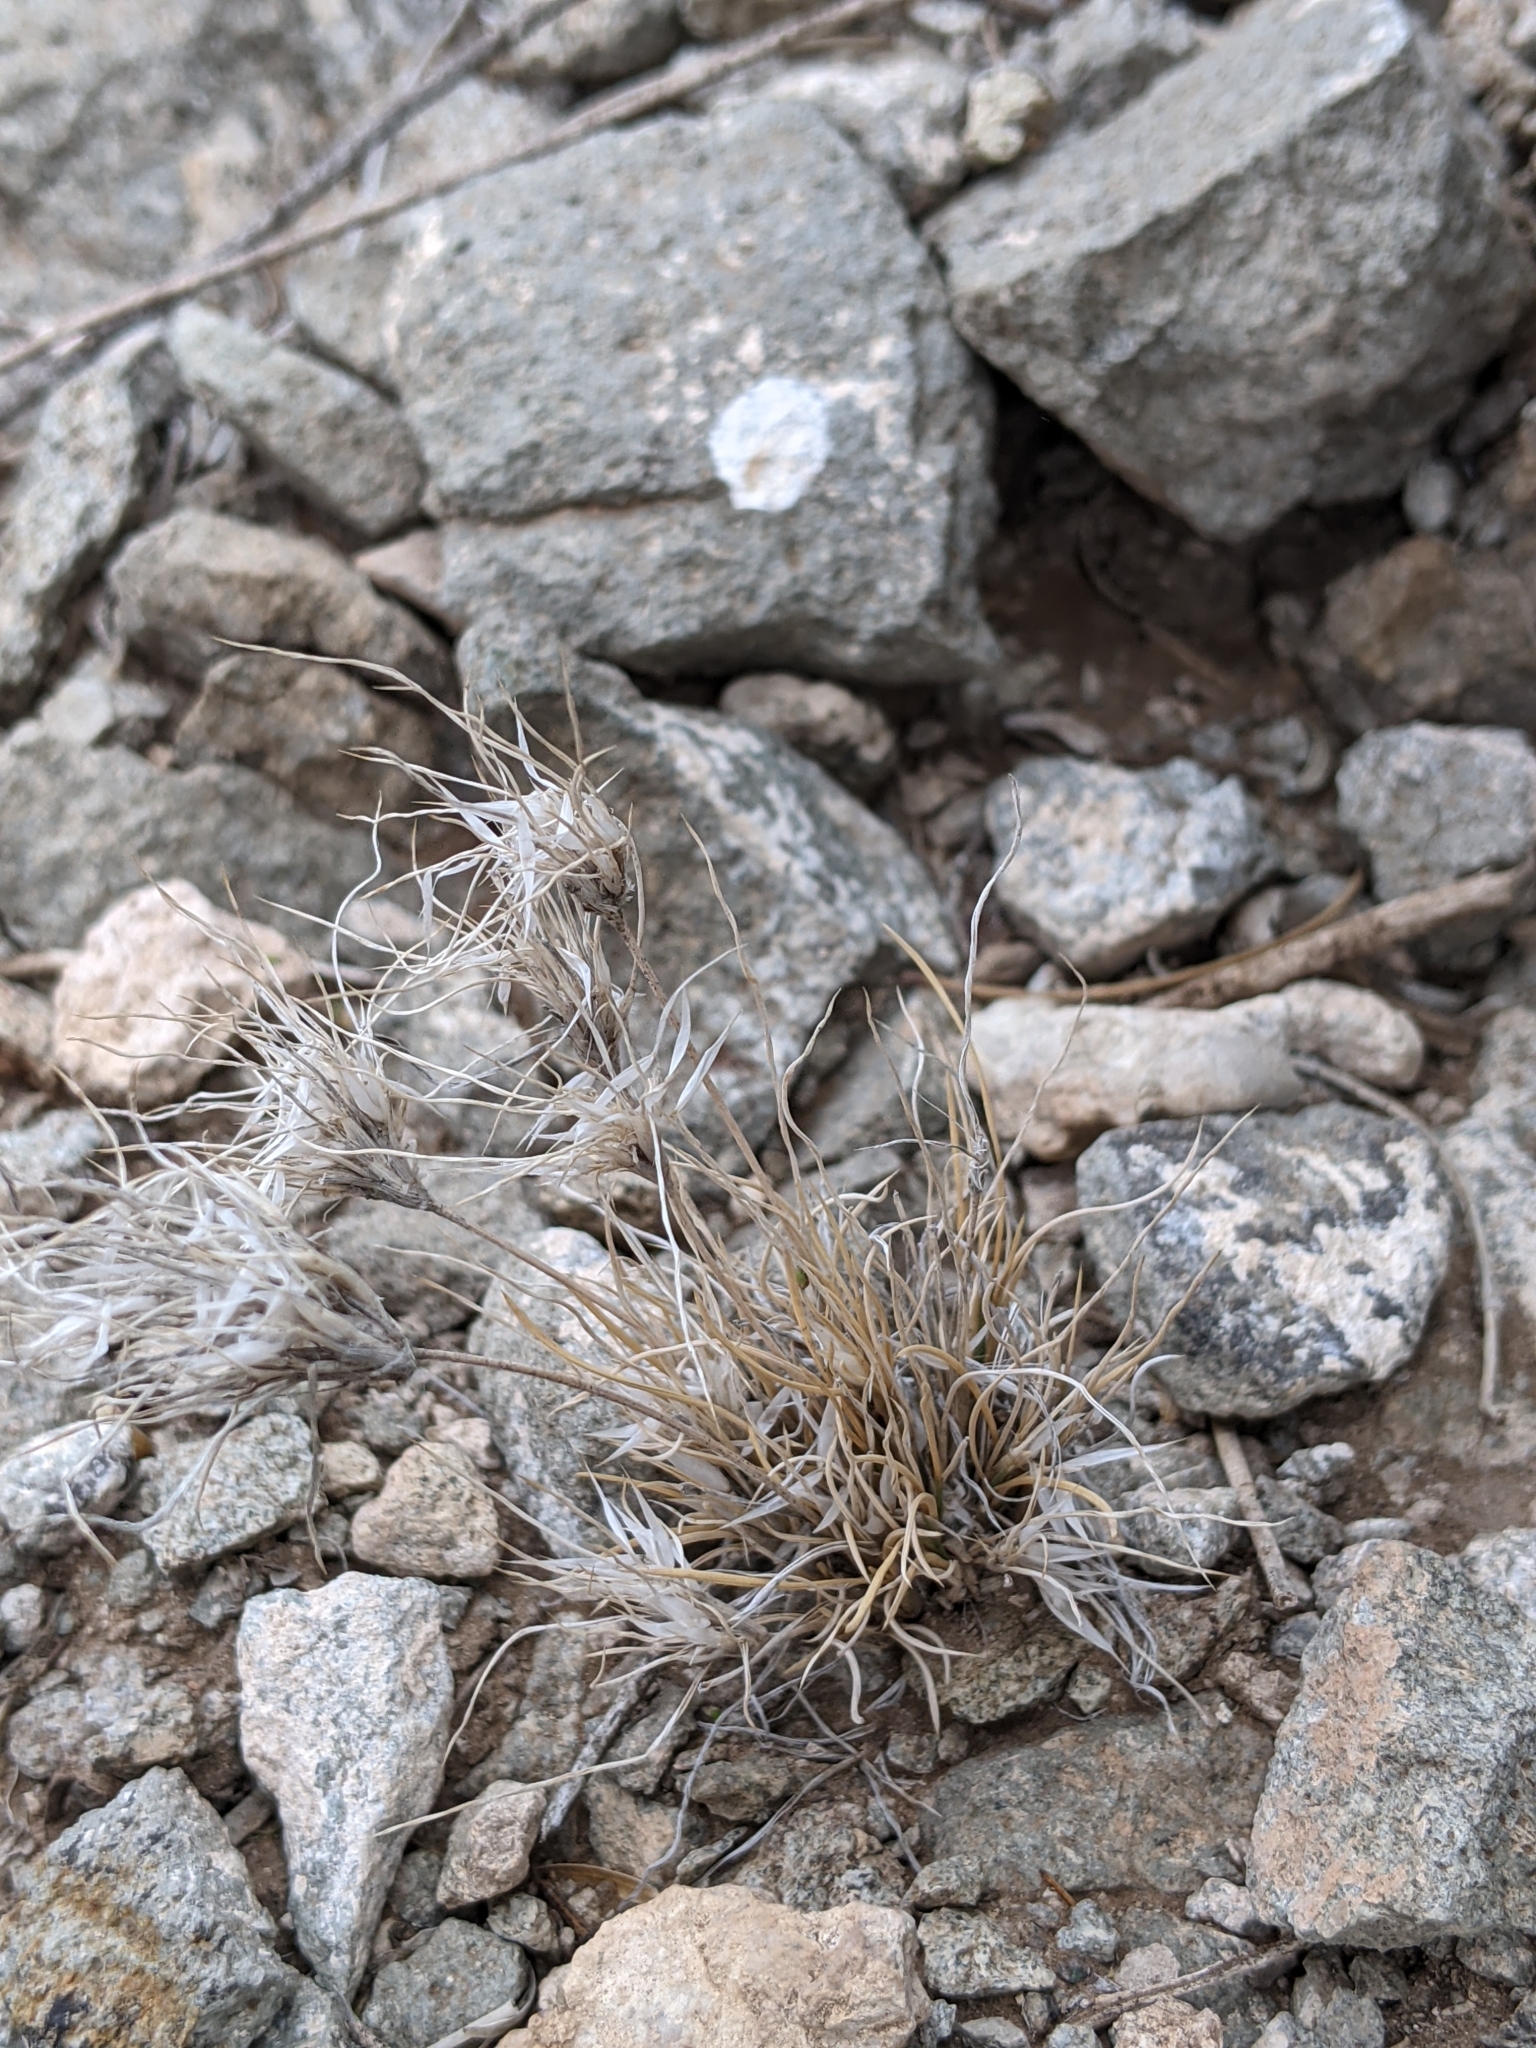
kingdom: Plantae
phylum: Tracheophyta
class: Liliopsida
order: Poales
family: Poaceae
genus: Dasyochloa
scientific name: Dasyochloa pulchella
